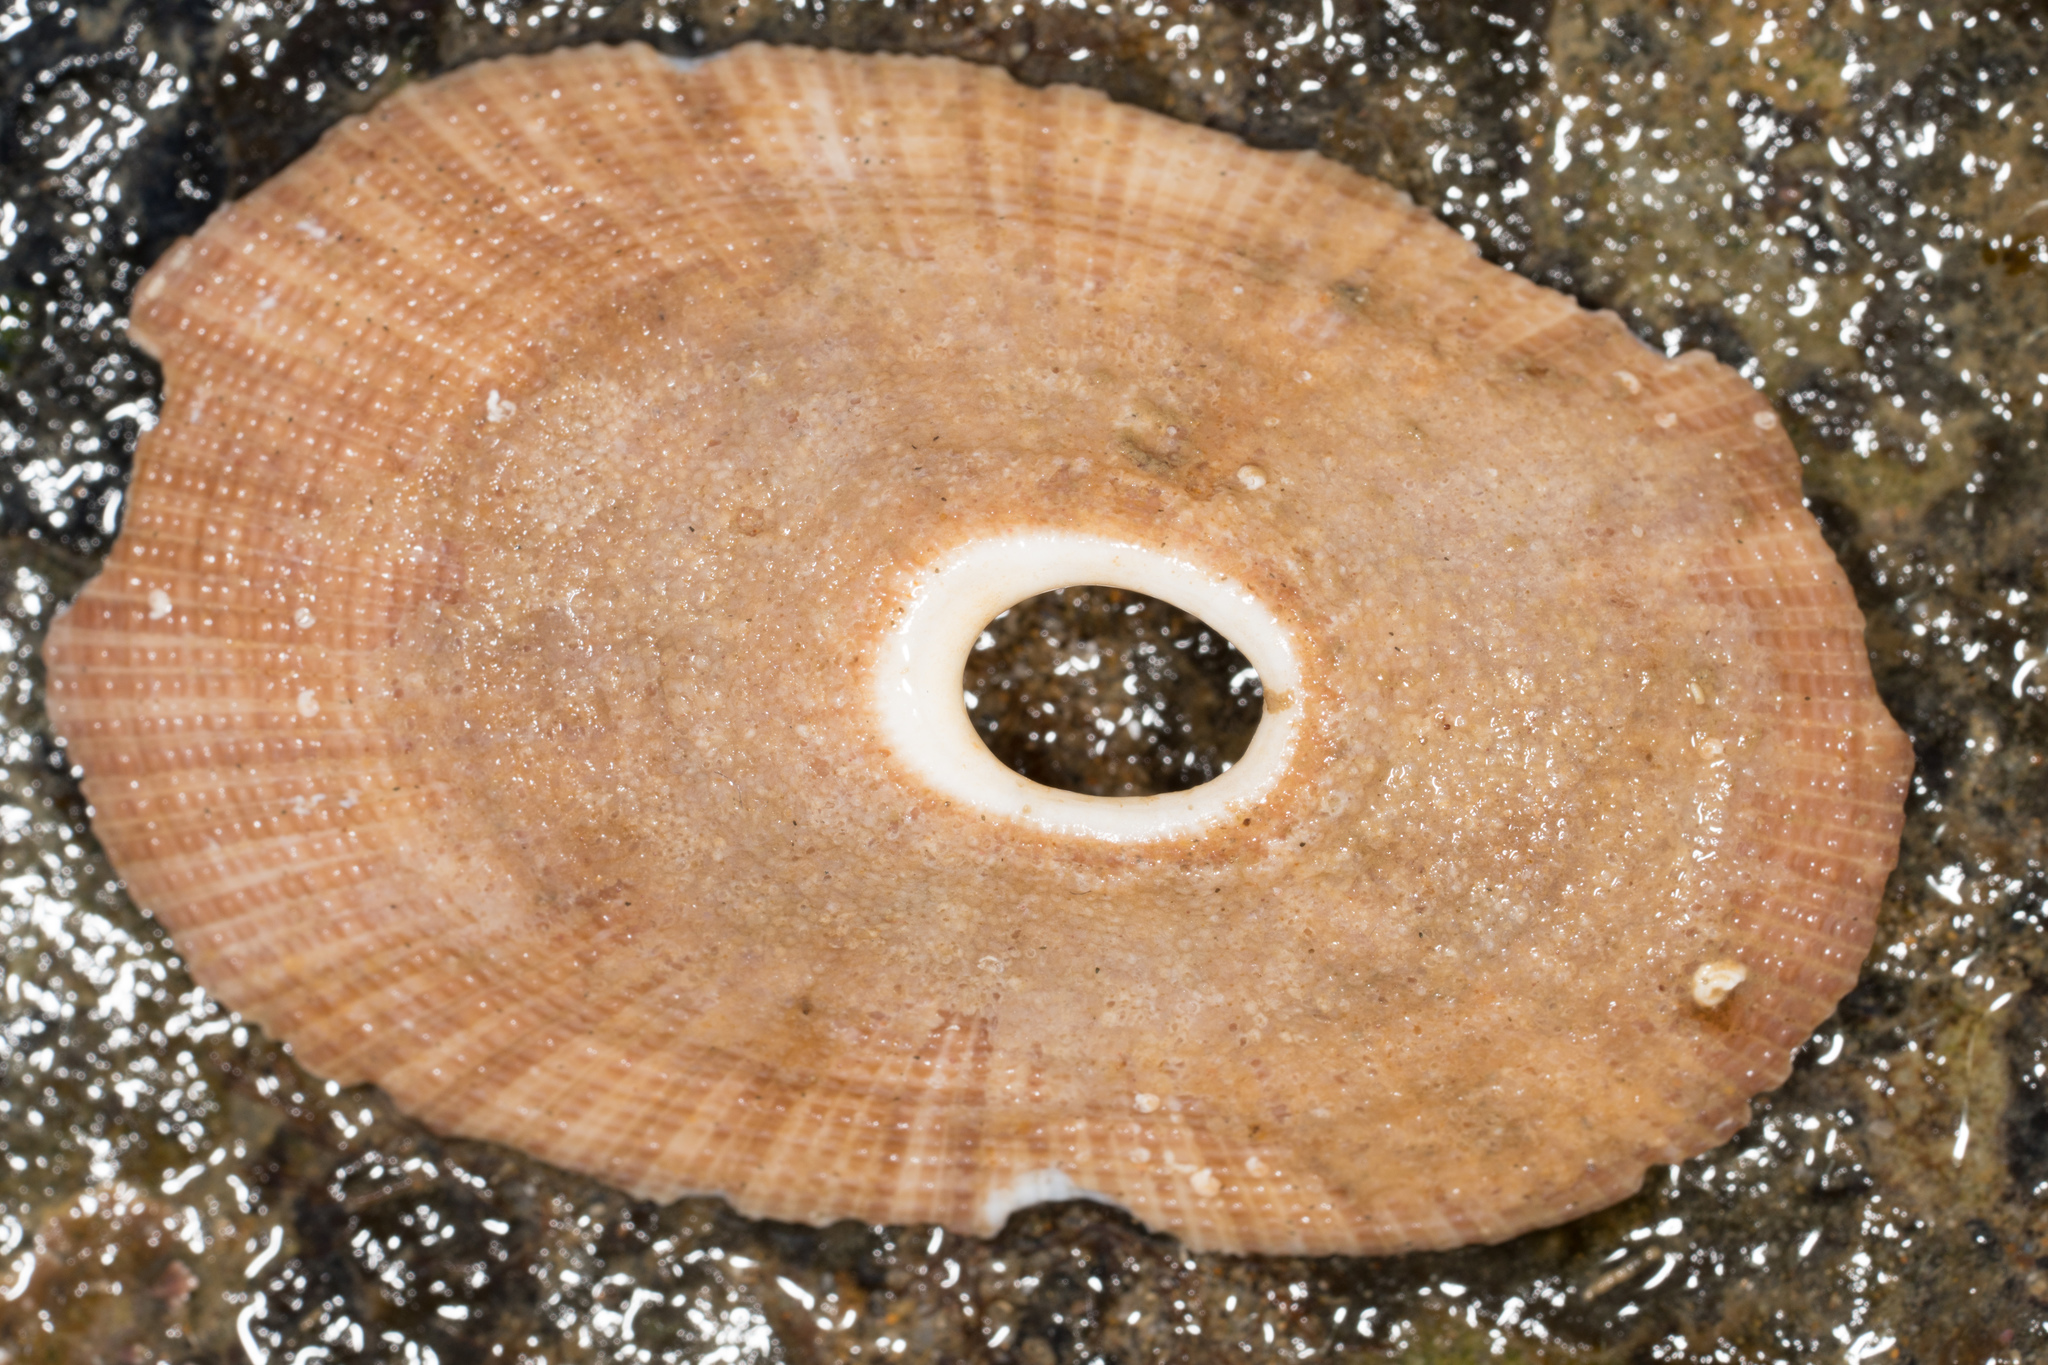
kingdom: Animalia
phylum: Mollusca
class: Gastropoda
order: Lepetellida
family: Fissurellidae
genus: Megathura
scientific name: Megathura crenulata
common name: Giant keyhole limpet
